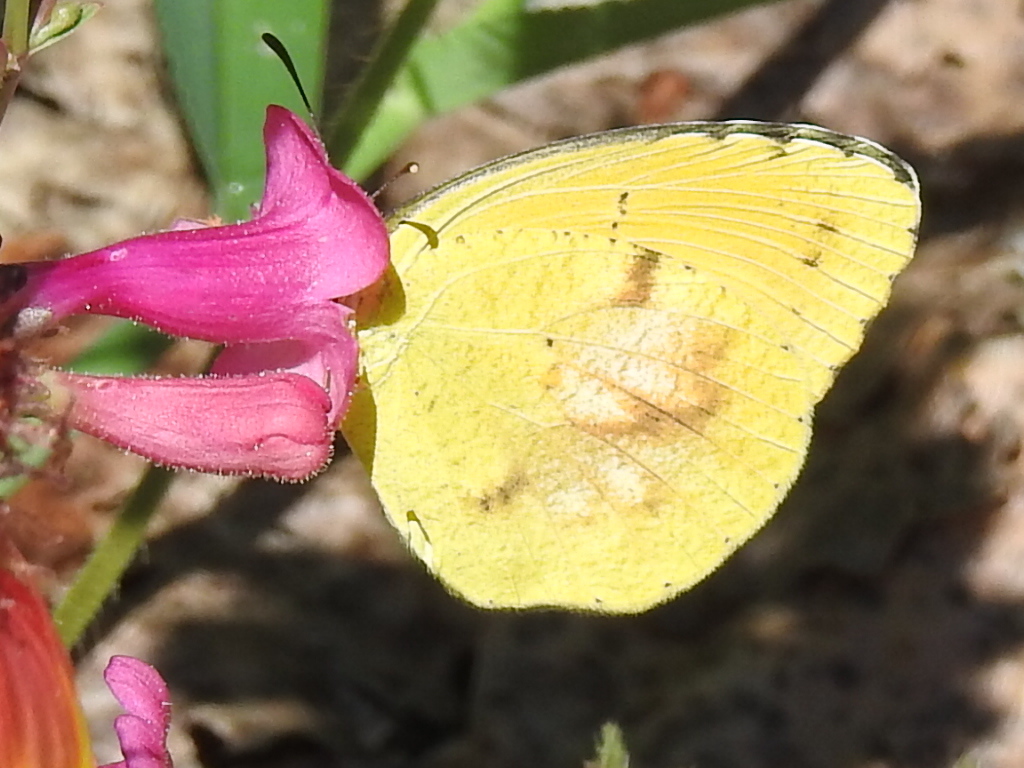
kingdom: Animalia
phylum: Arthropoda
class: Insecta
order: Lepidoptera
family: Pieridae
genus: Abaeis
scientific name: Abaeis nicippe
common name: Sleepy orange
